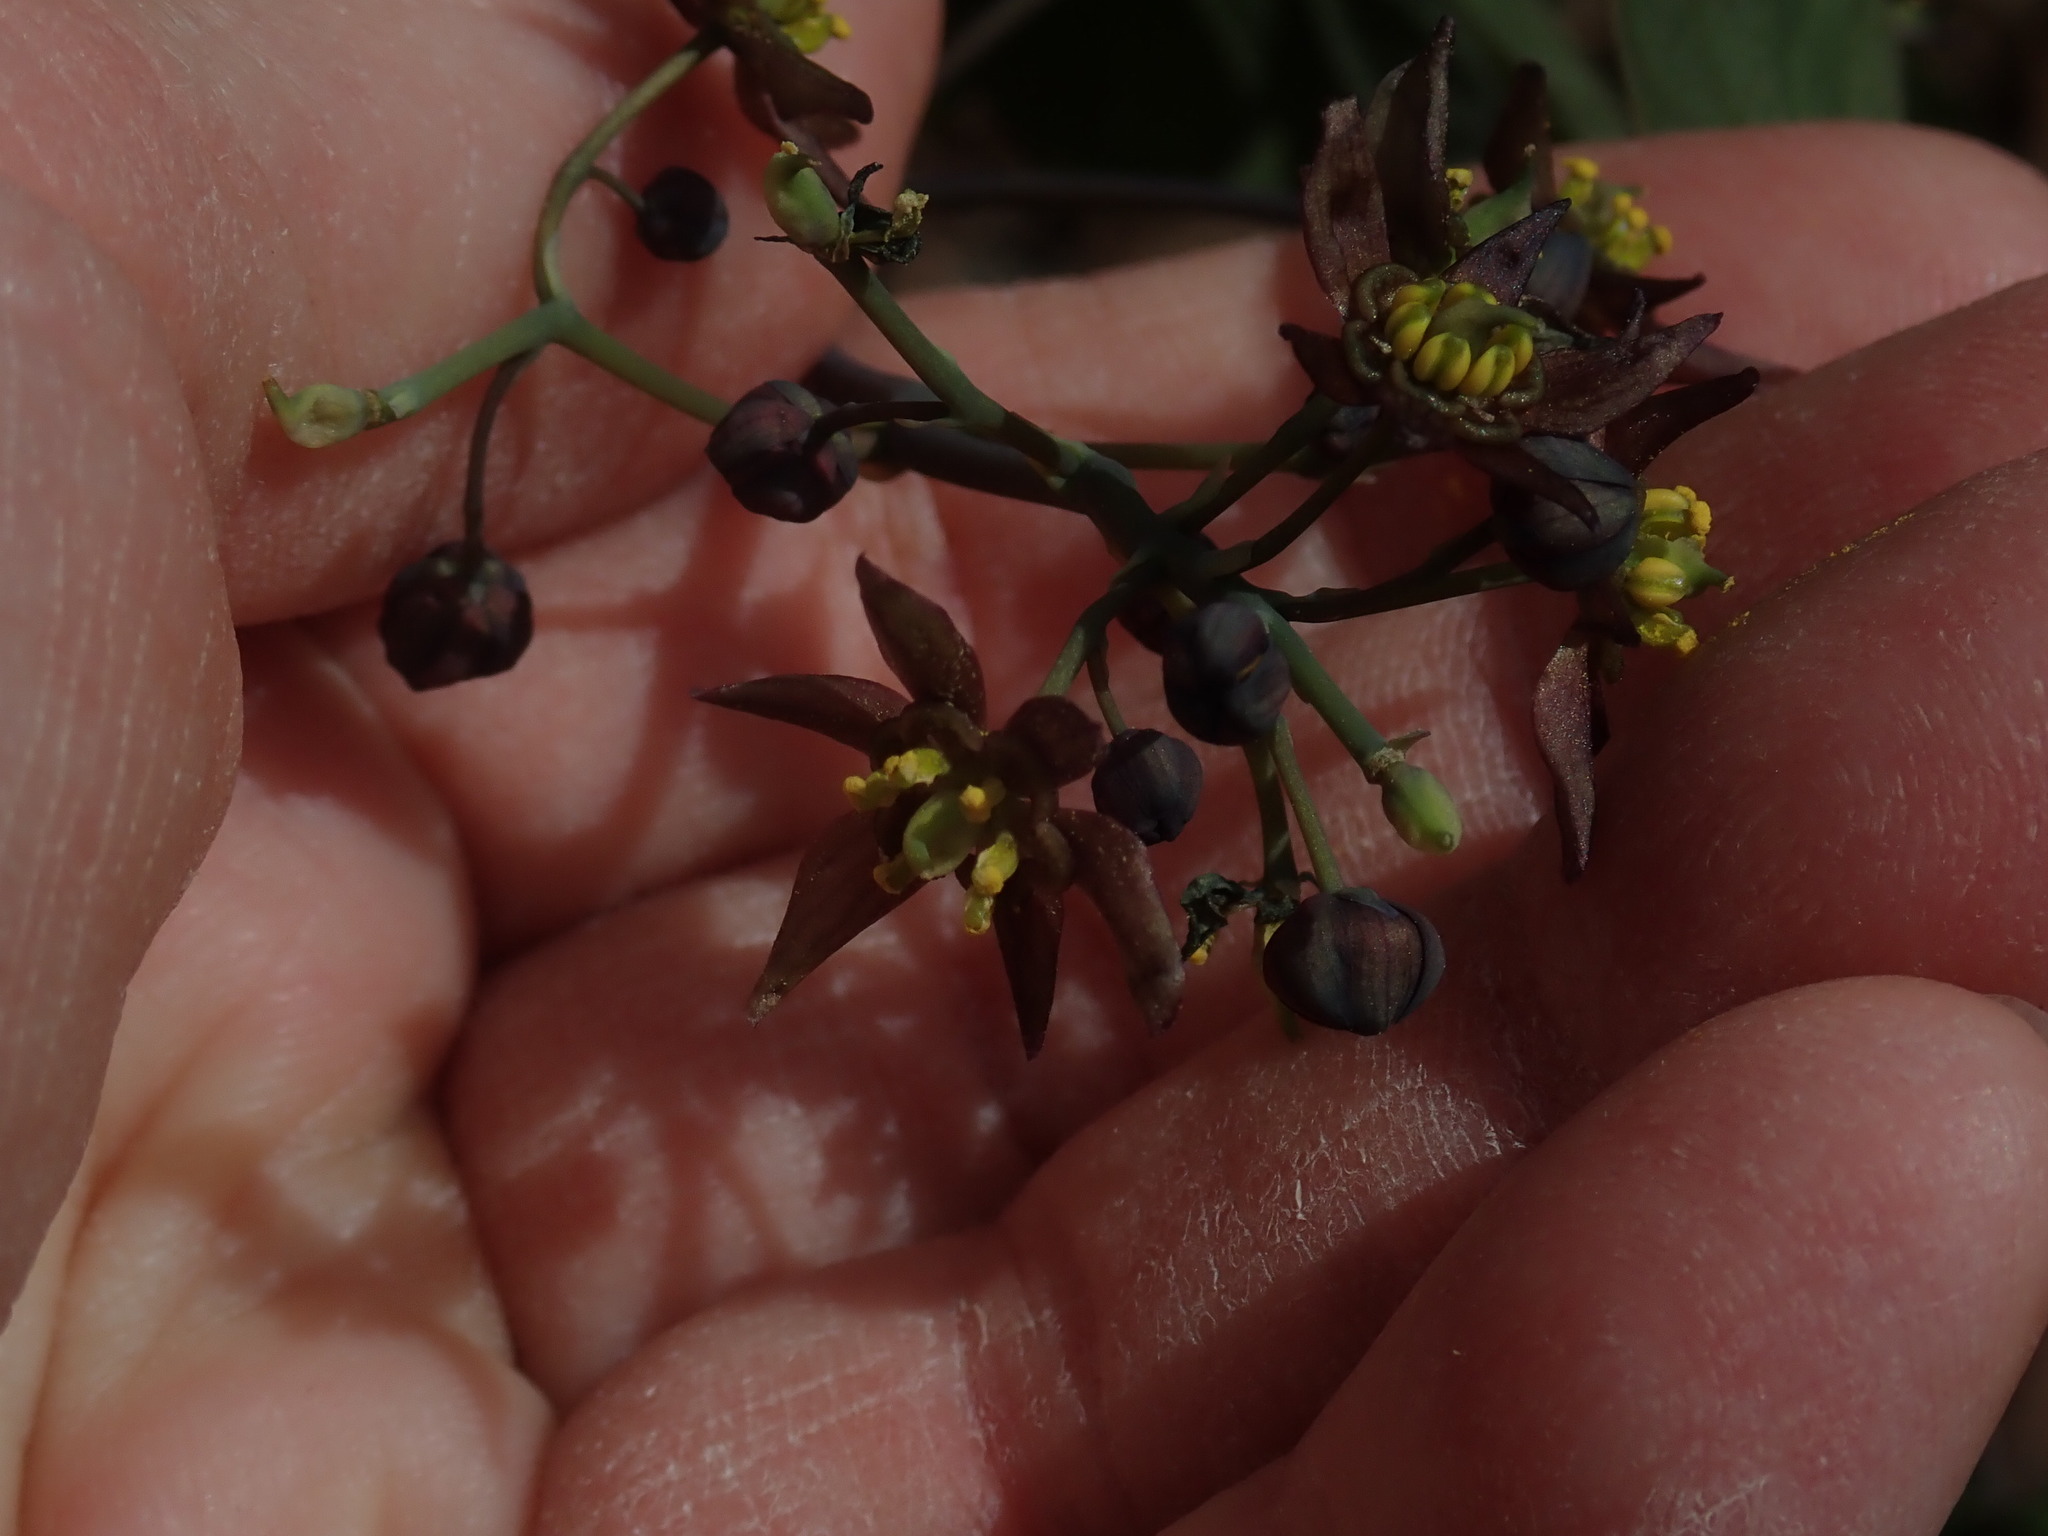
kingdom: Plantae
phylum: Tracheophyta
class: Magnoliopsida
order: Ranunculales
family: Berberidaceae
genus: Caulophyllum
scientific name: Caulophyllum giganteum
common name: Blue cohosh
